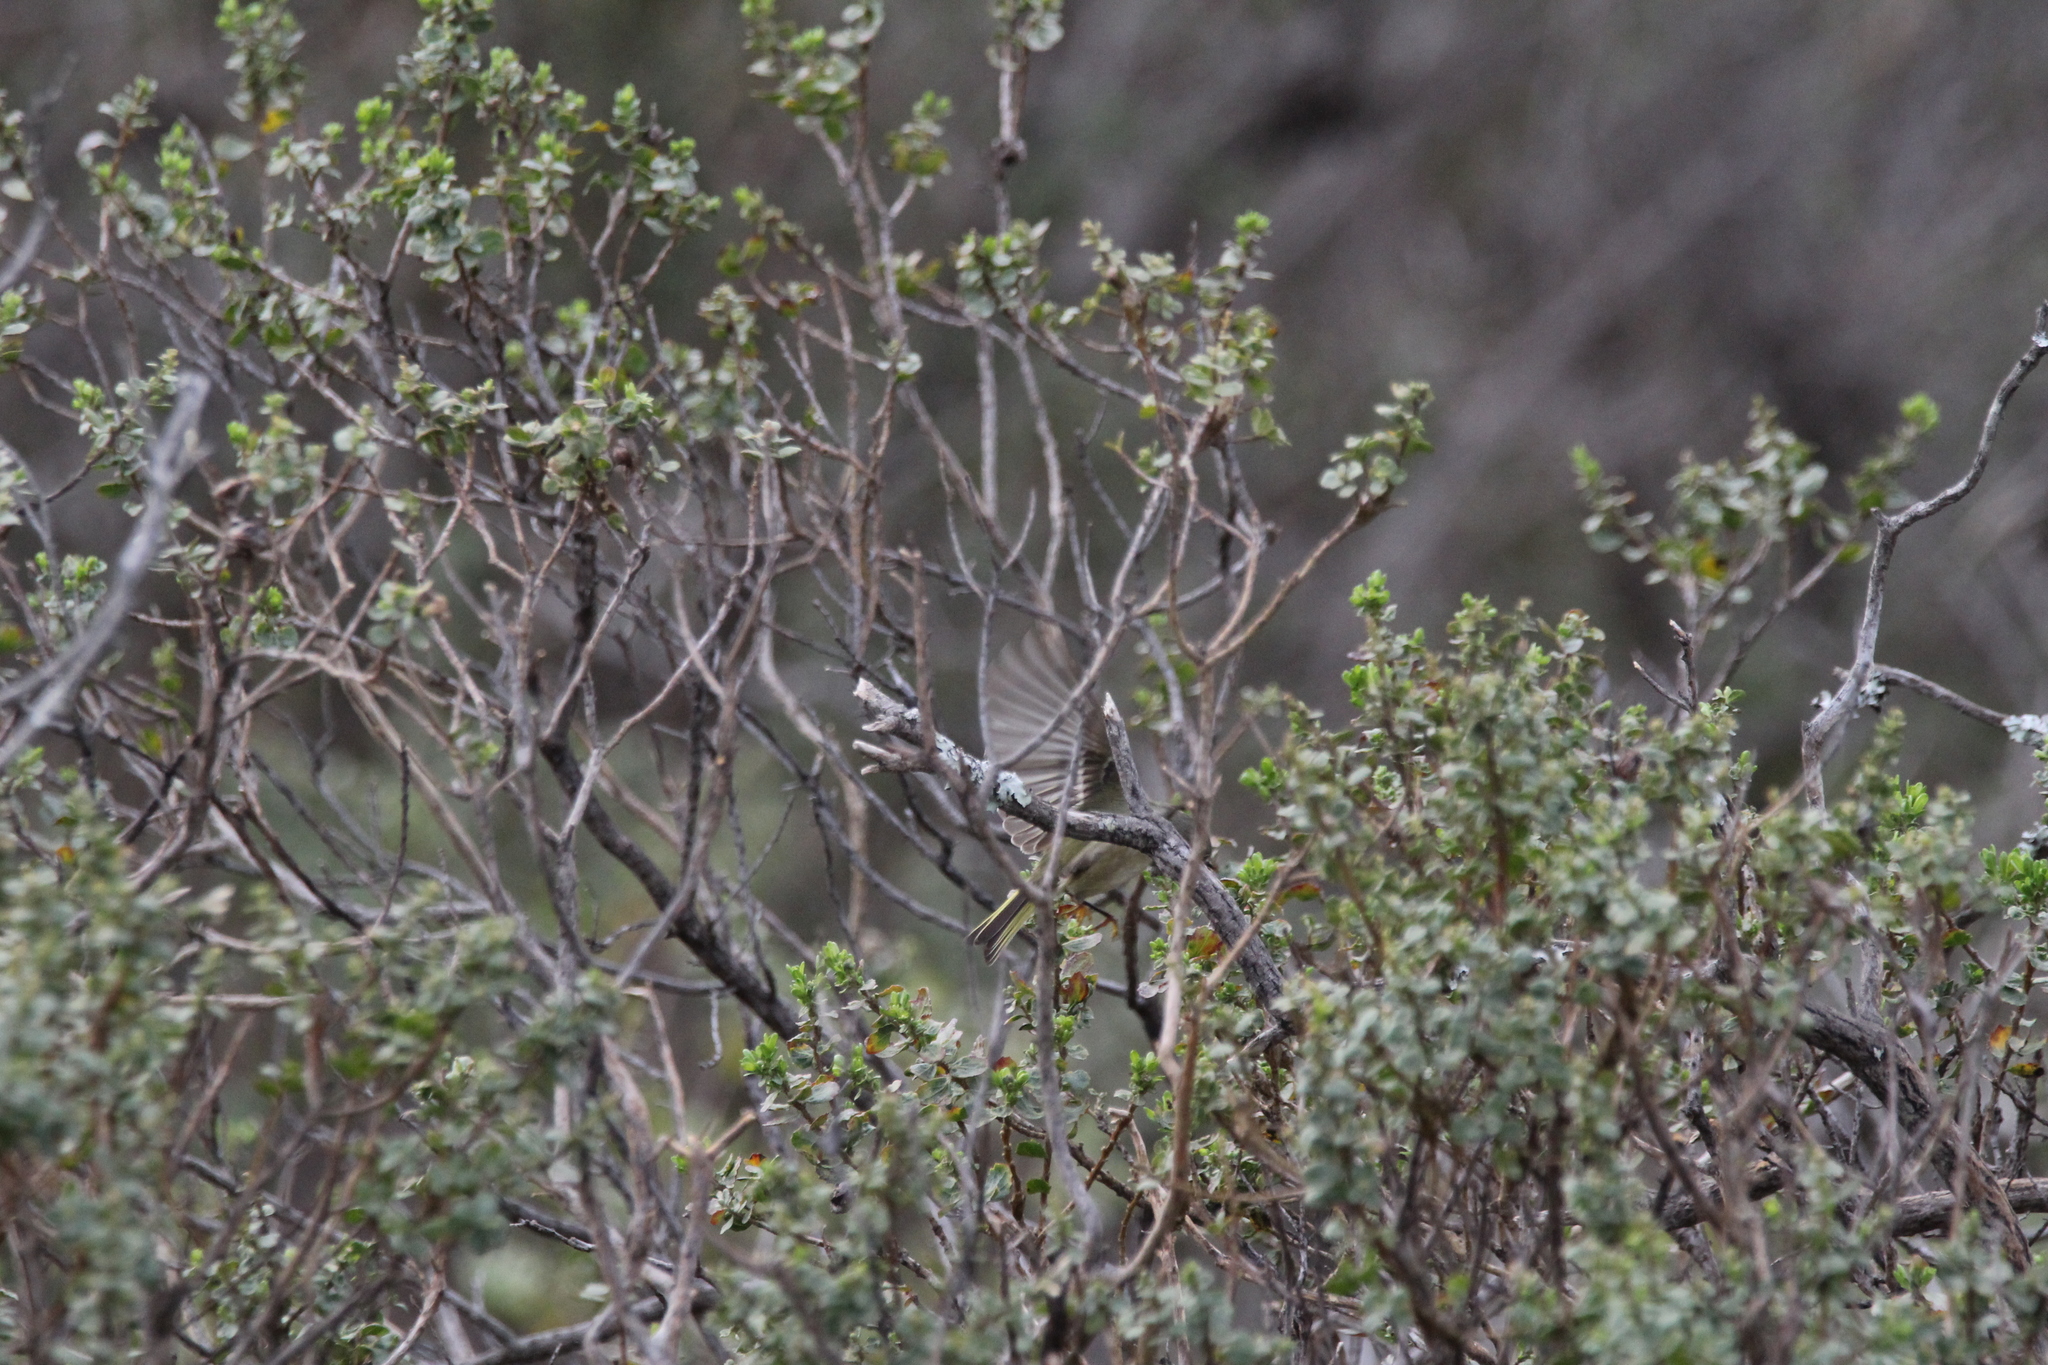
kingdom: Animalia
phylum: Chordata
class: Aves
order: Passeriformes
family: Regulidae
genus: Regulus
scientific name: Regulus calendula
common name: Ruby-crowned kinglet
